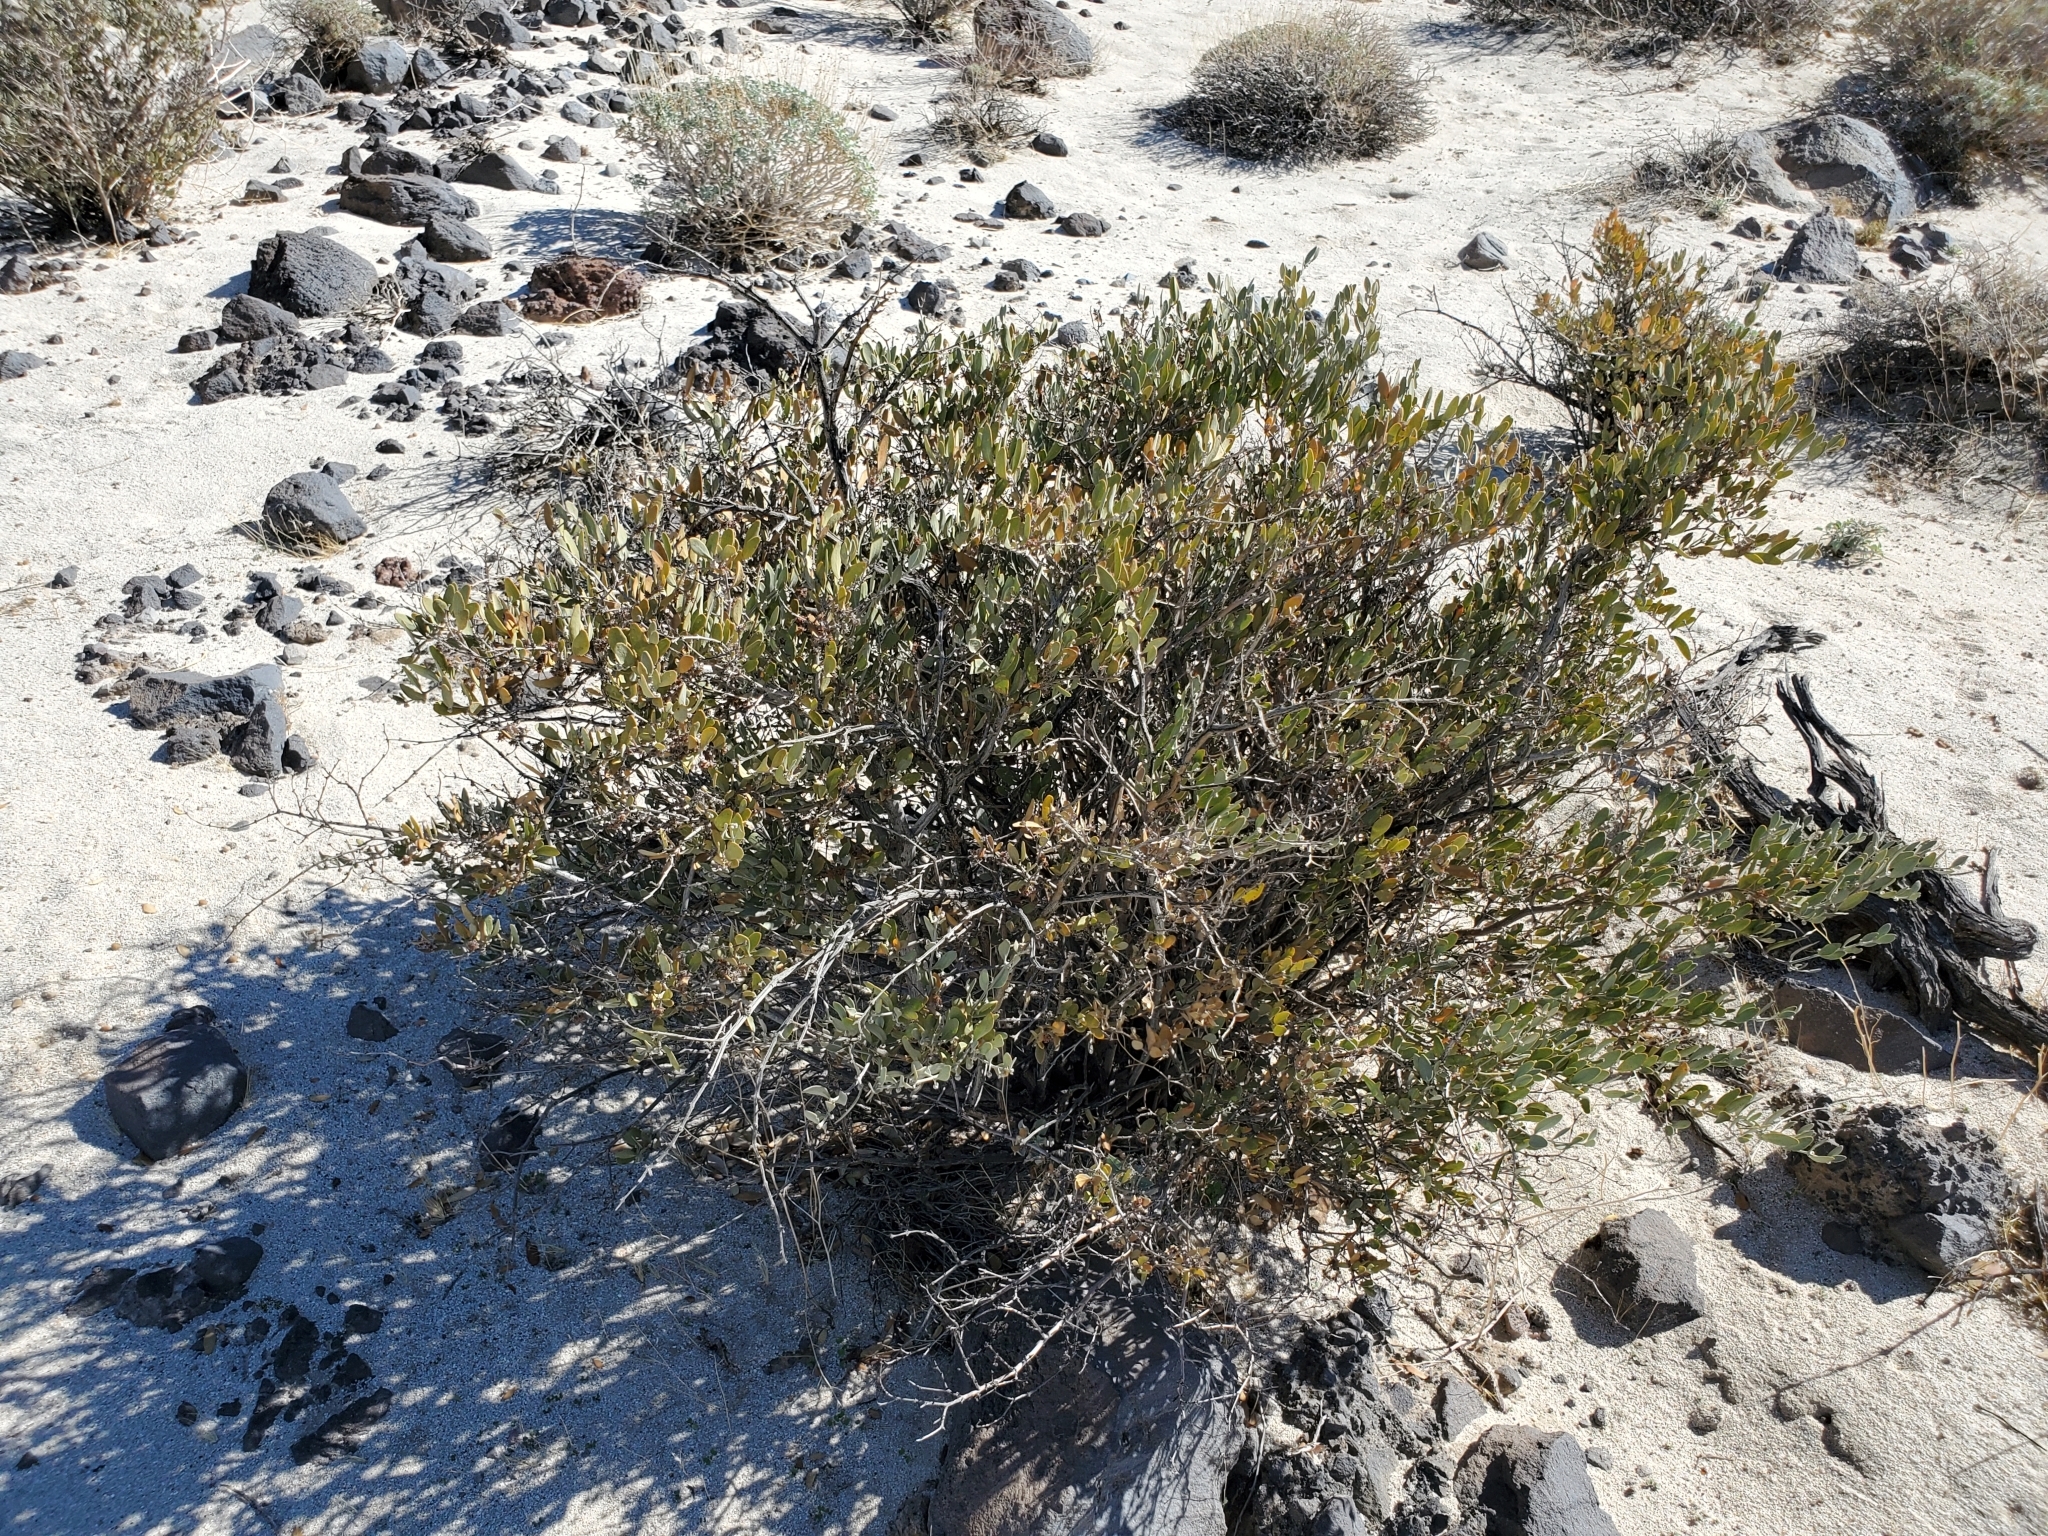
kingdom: Plantae
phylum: Tracheophyta
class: Magnoliopsida
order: Caryophyllales
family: Simmondsiaceae
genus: Simmondsia
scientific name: Simmondsia chinensis
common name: Jojoba
